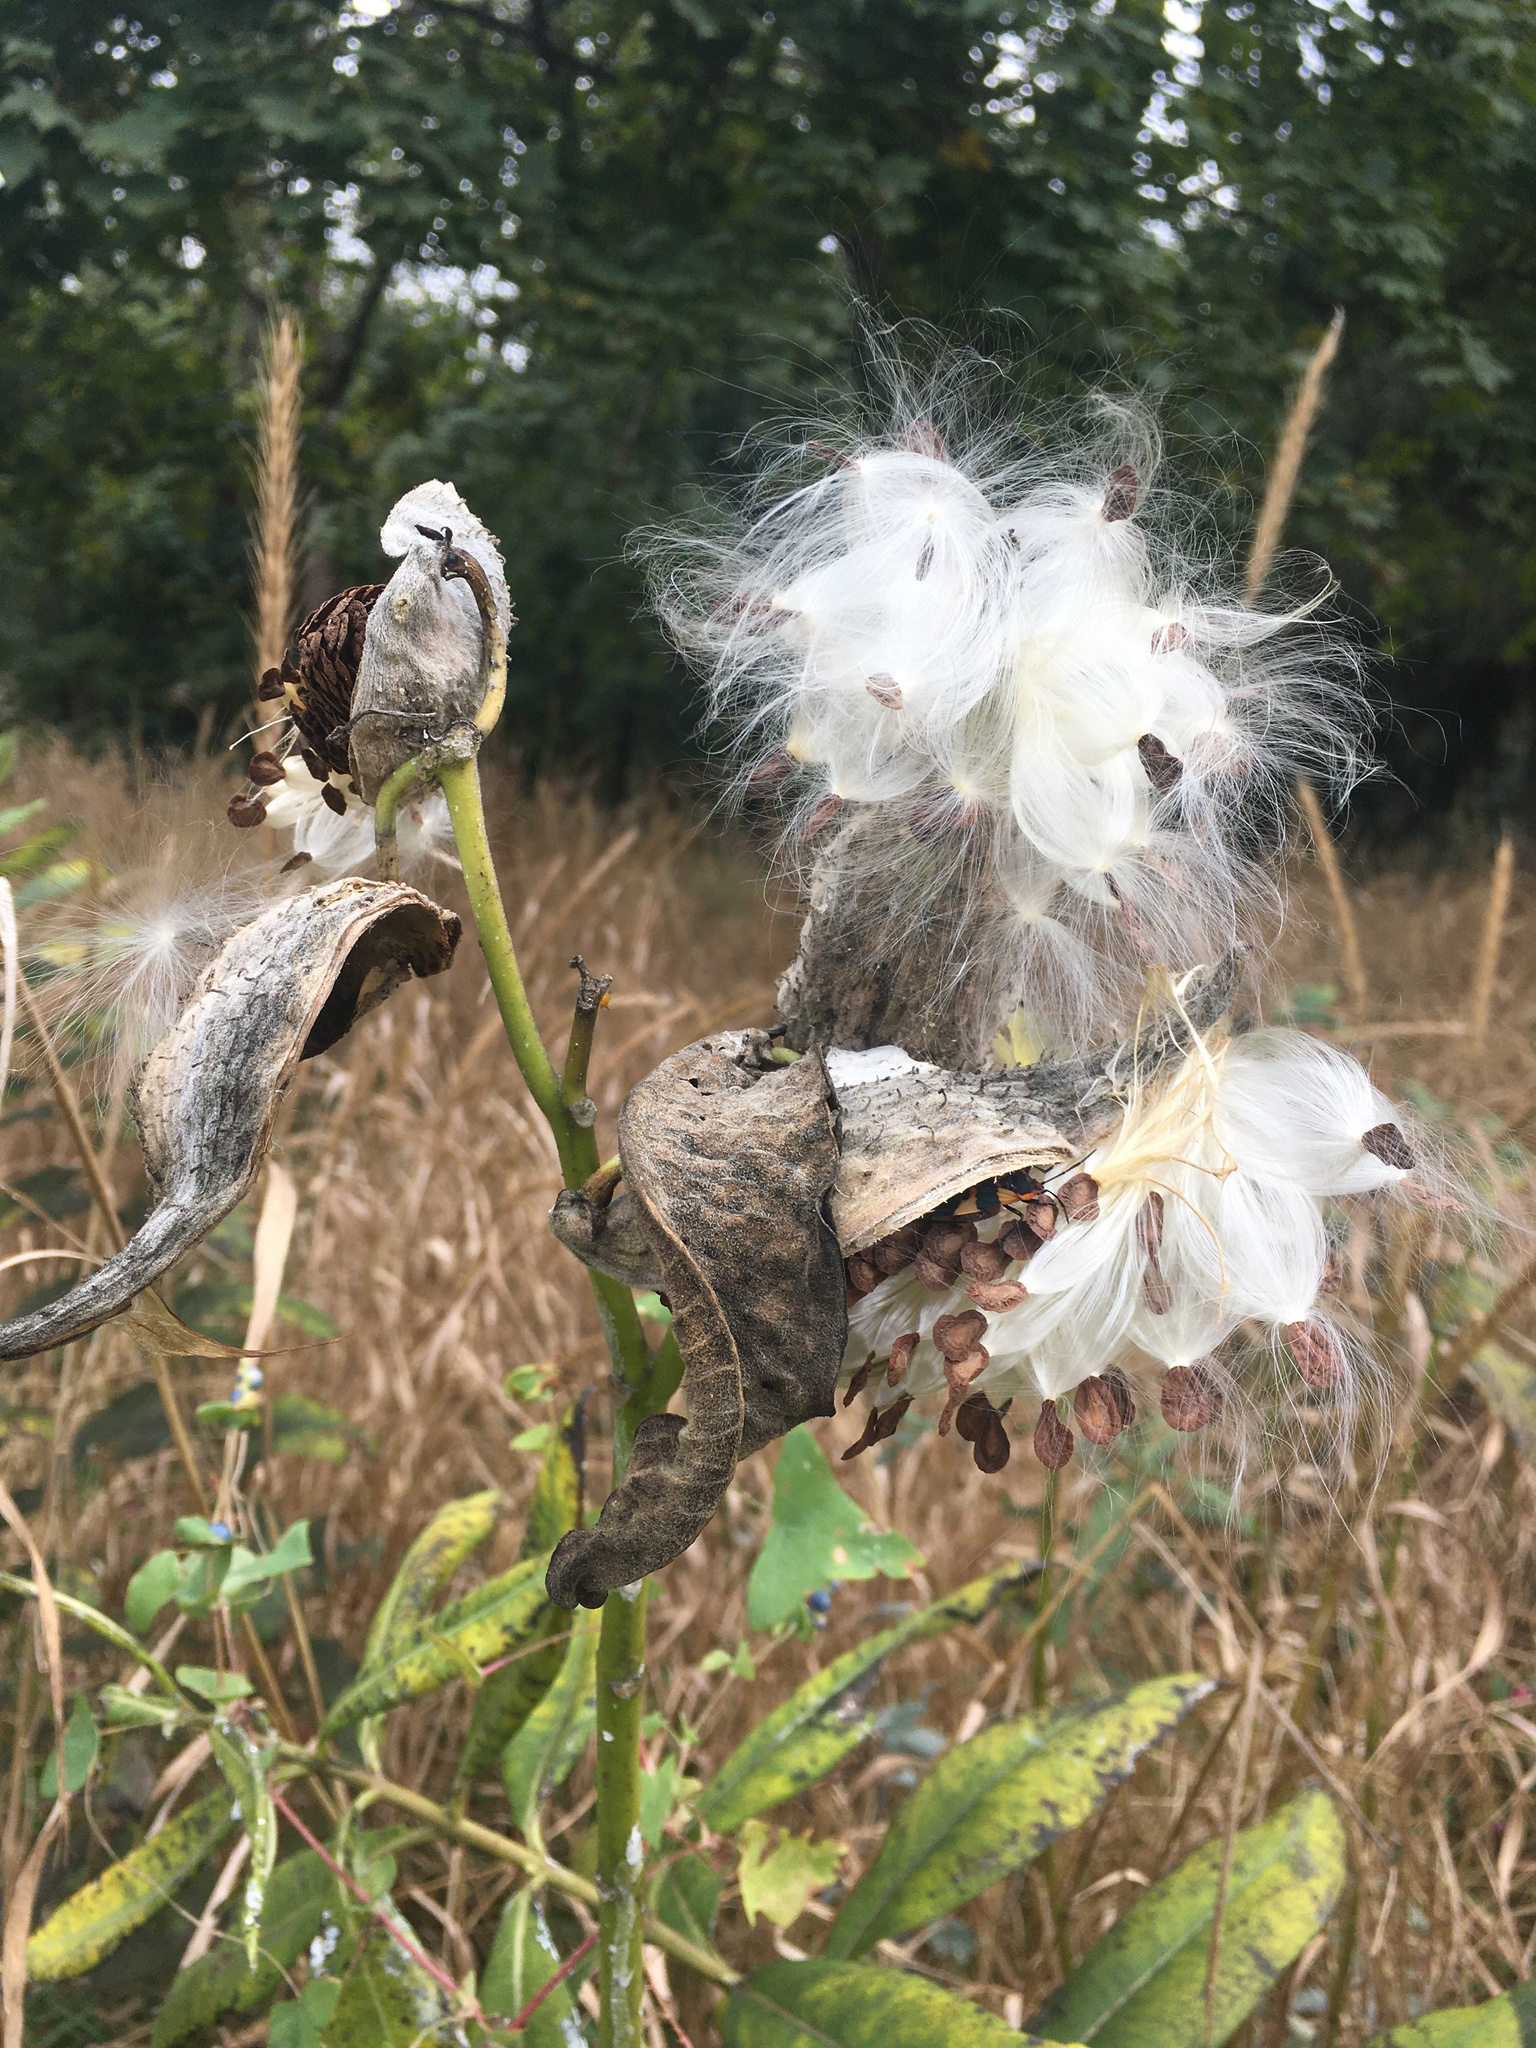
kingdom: Plantae
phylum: Tracheophyta
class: Magnoliopsida
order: Gentianales
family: Apocynaceae
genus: Asclepias
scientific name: Asclepias syriaca
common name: Common milkweed
